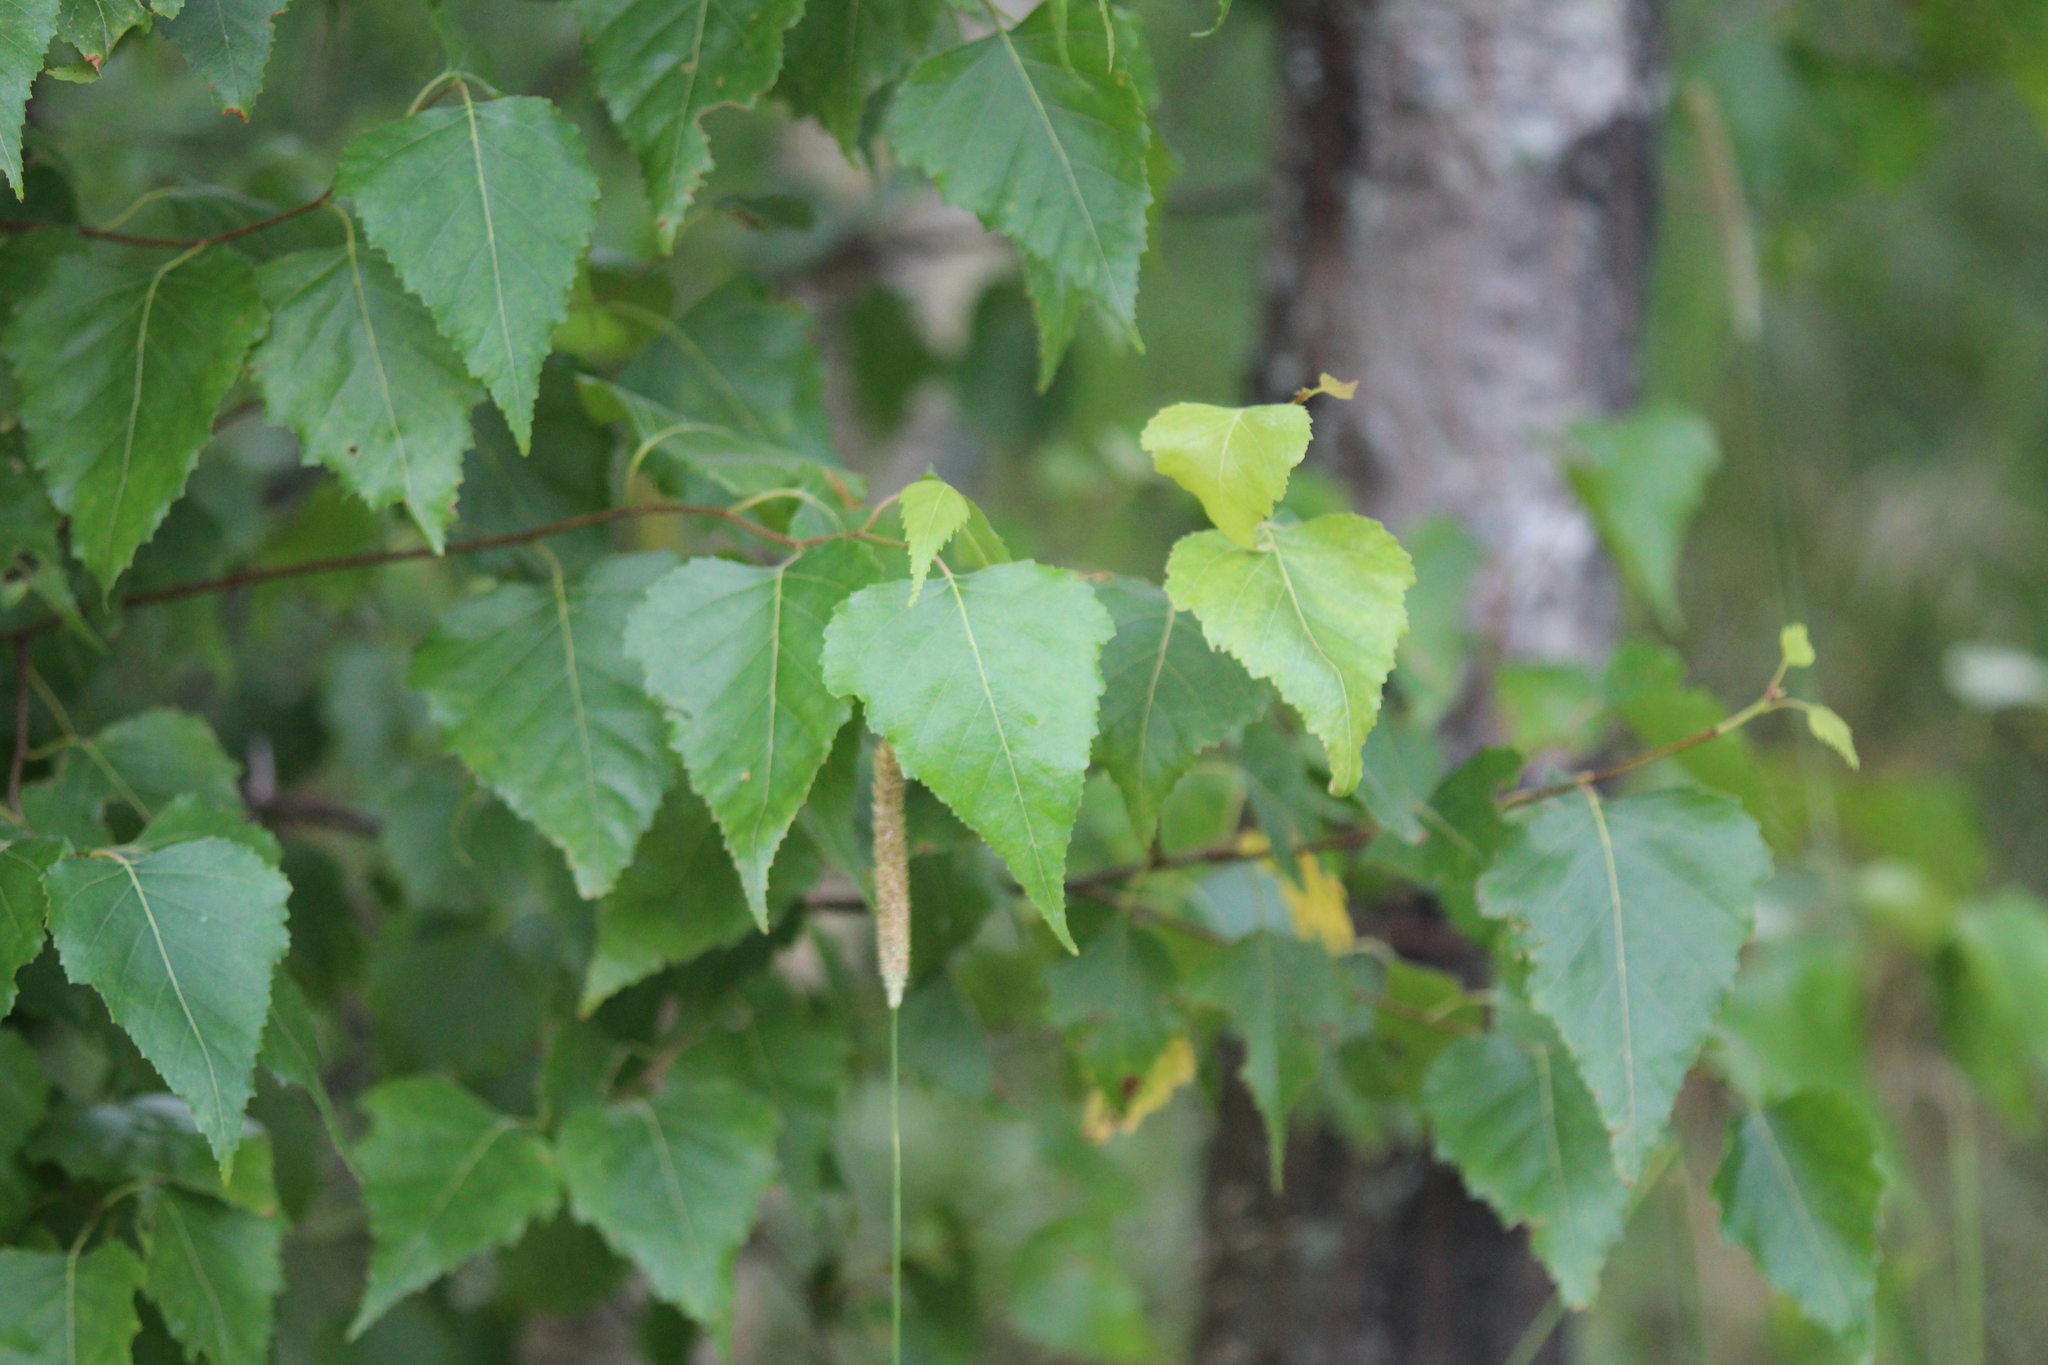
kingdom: Plantae
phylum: Tracheophyta
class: Magnoliopsida
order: Fagales
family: Betulaceae
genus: Betula
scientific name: Betula populifolia
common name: Fire birch
